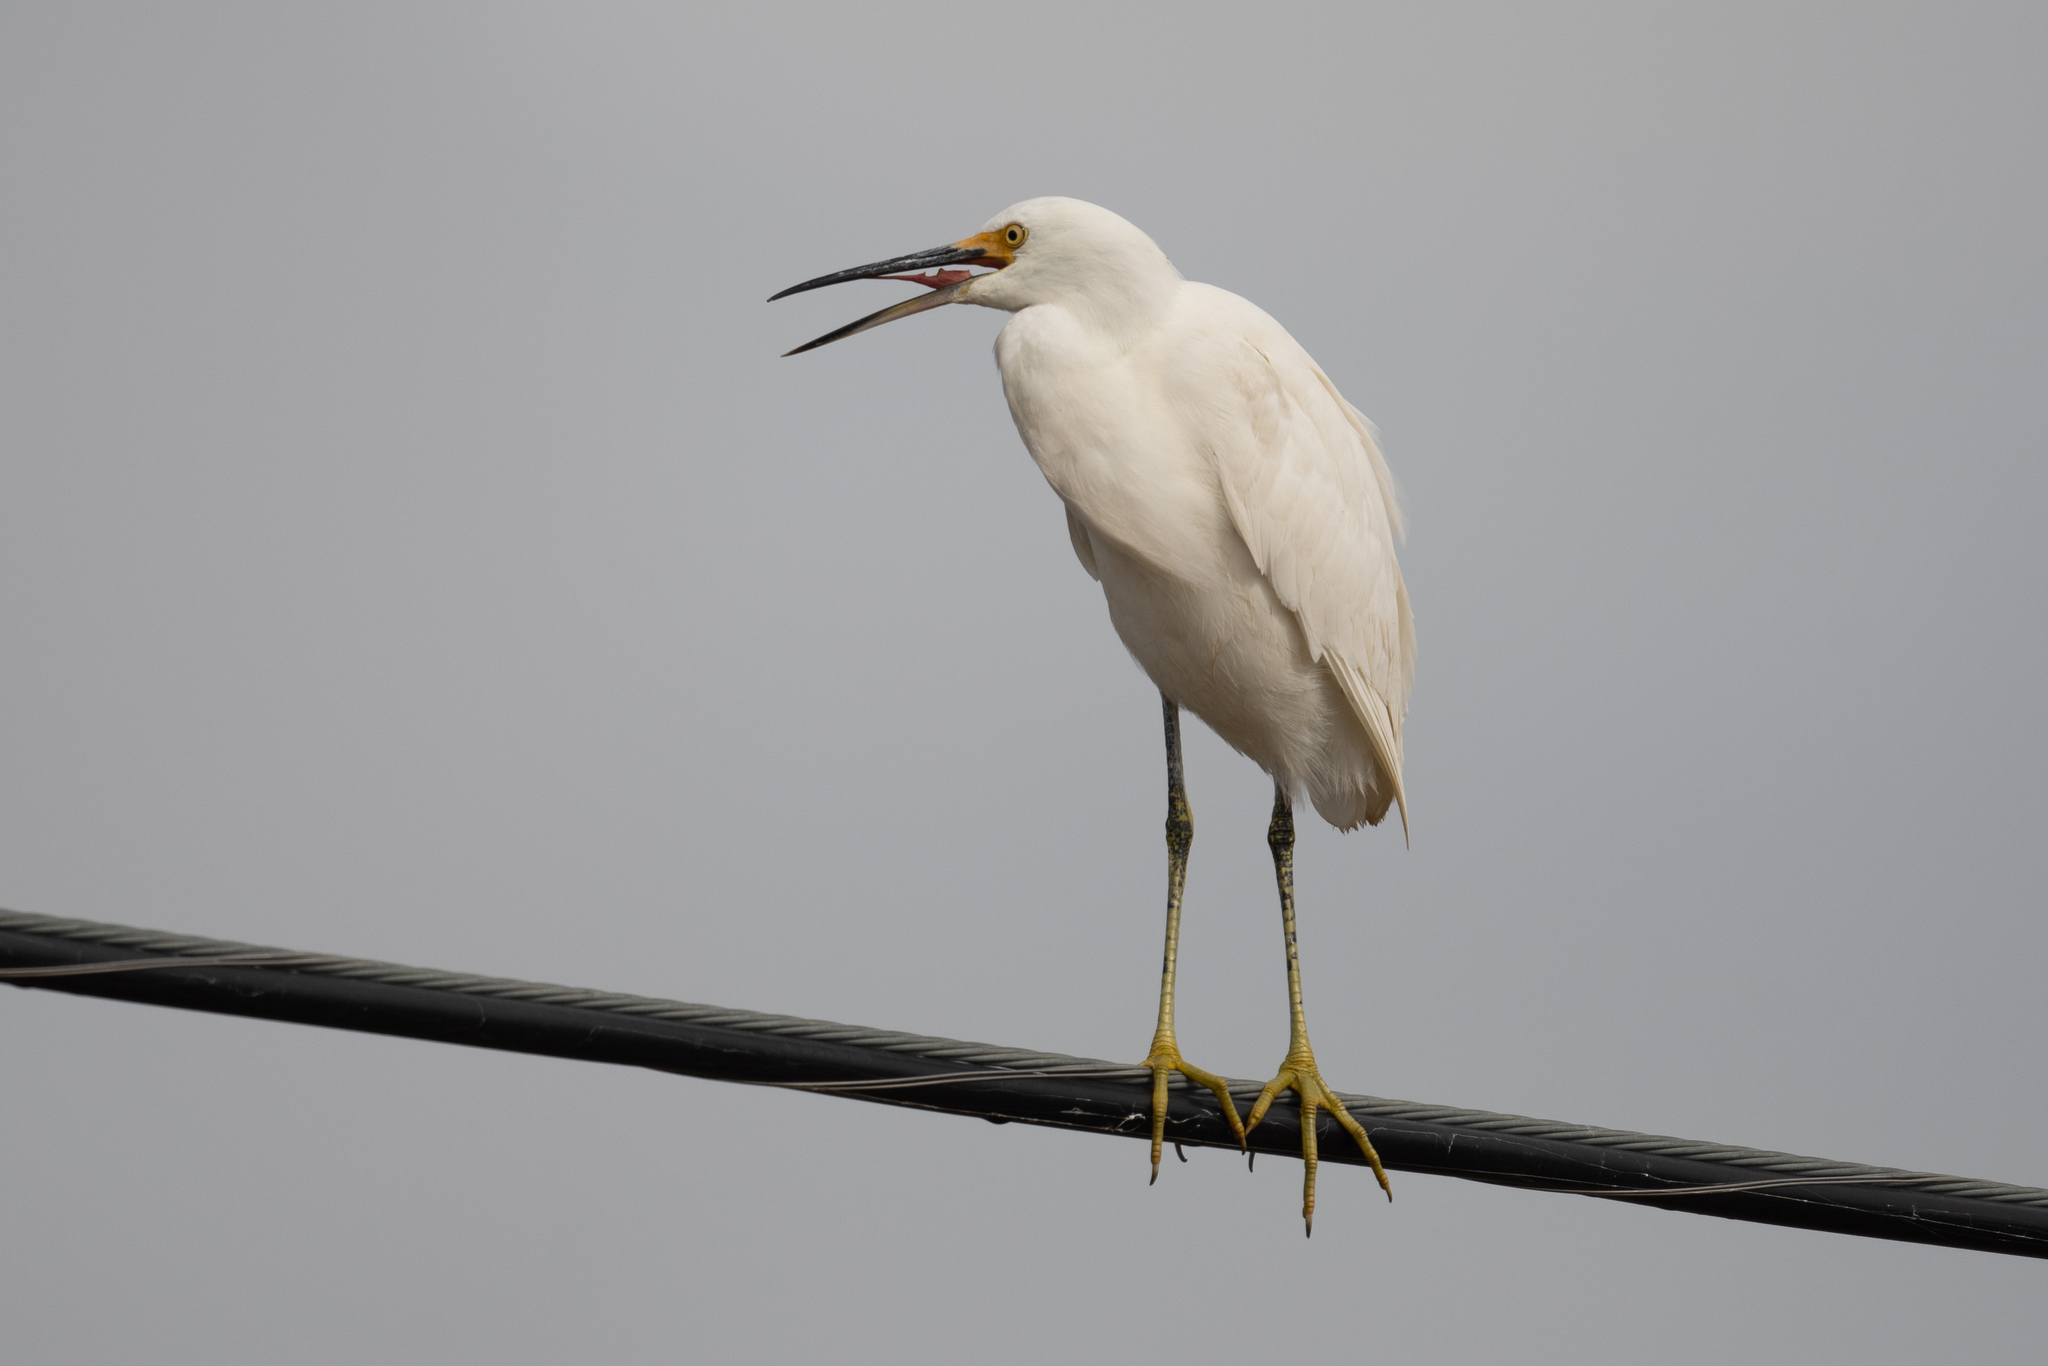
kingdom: Animalia
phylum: Chordata
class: Aves
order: Pelecaniformes
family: Ardeidae
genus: Egretta
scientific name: Egretta thula
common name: Snowy egret
